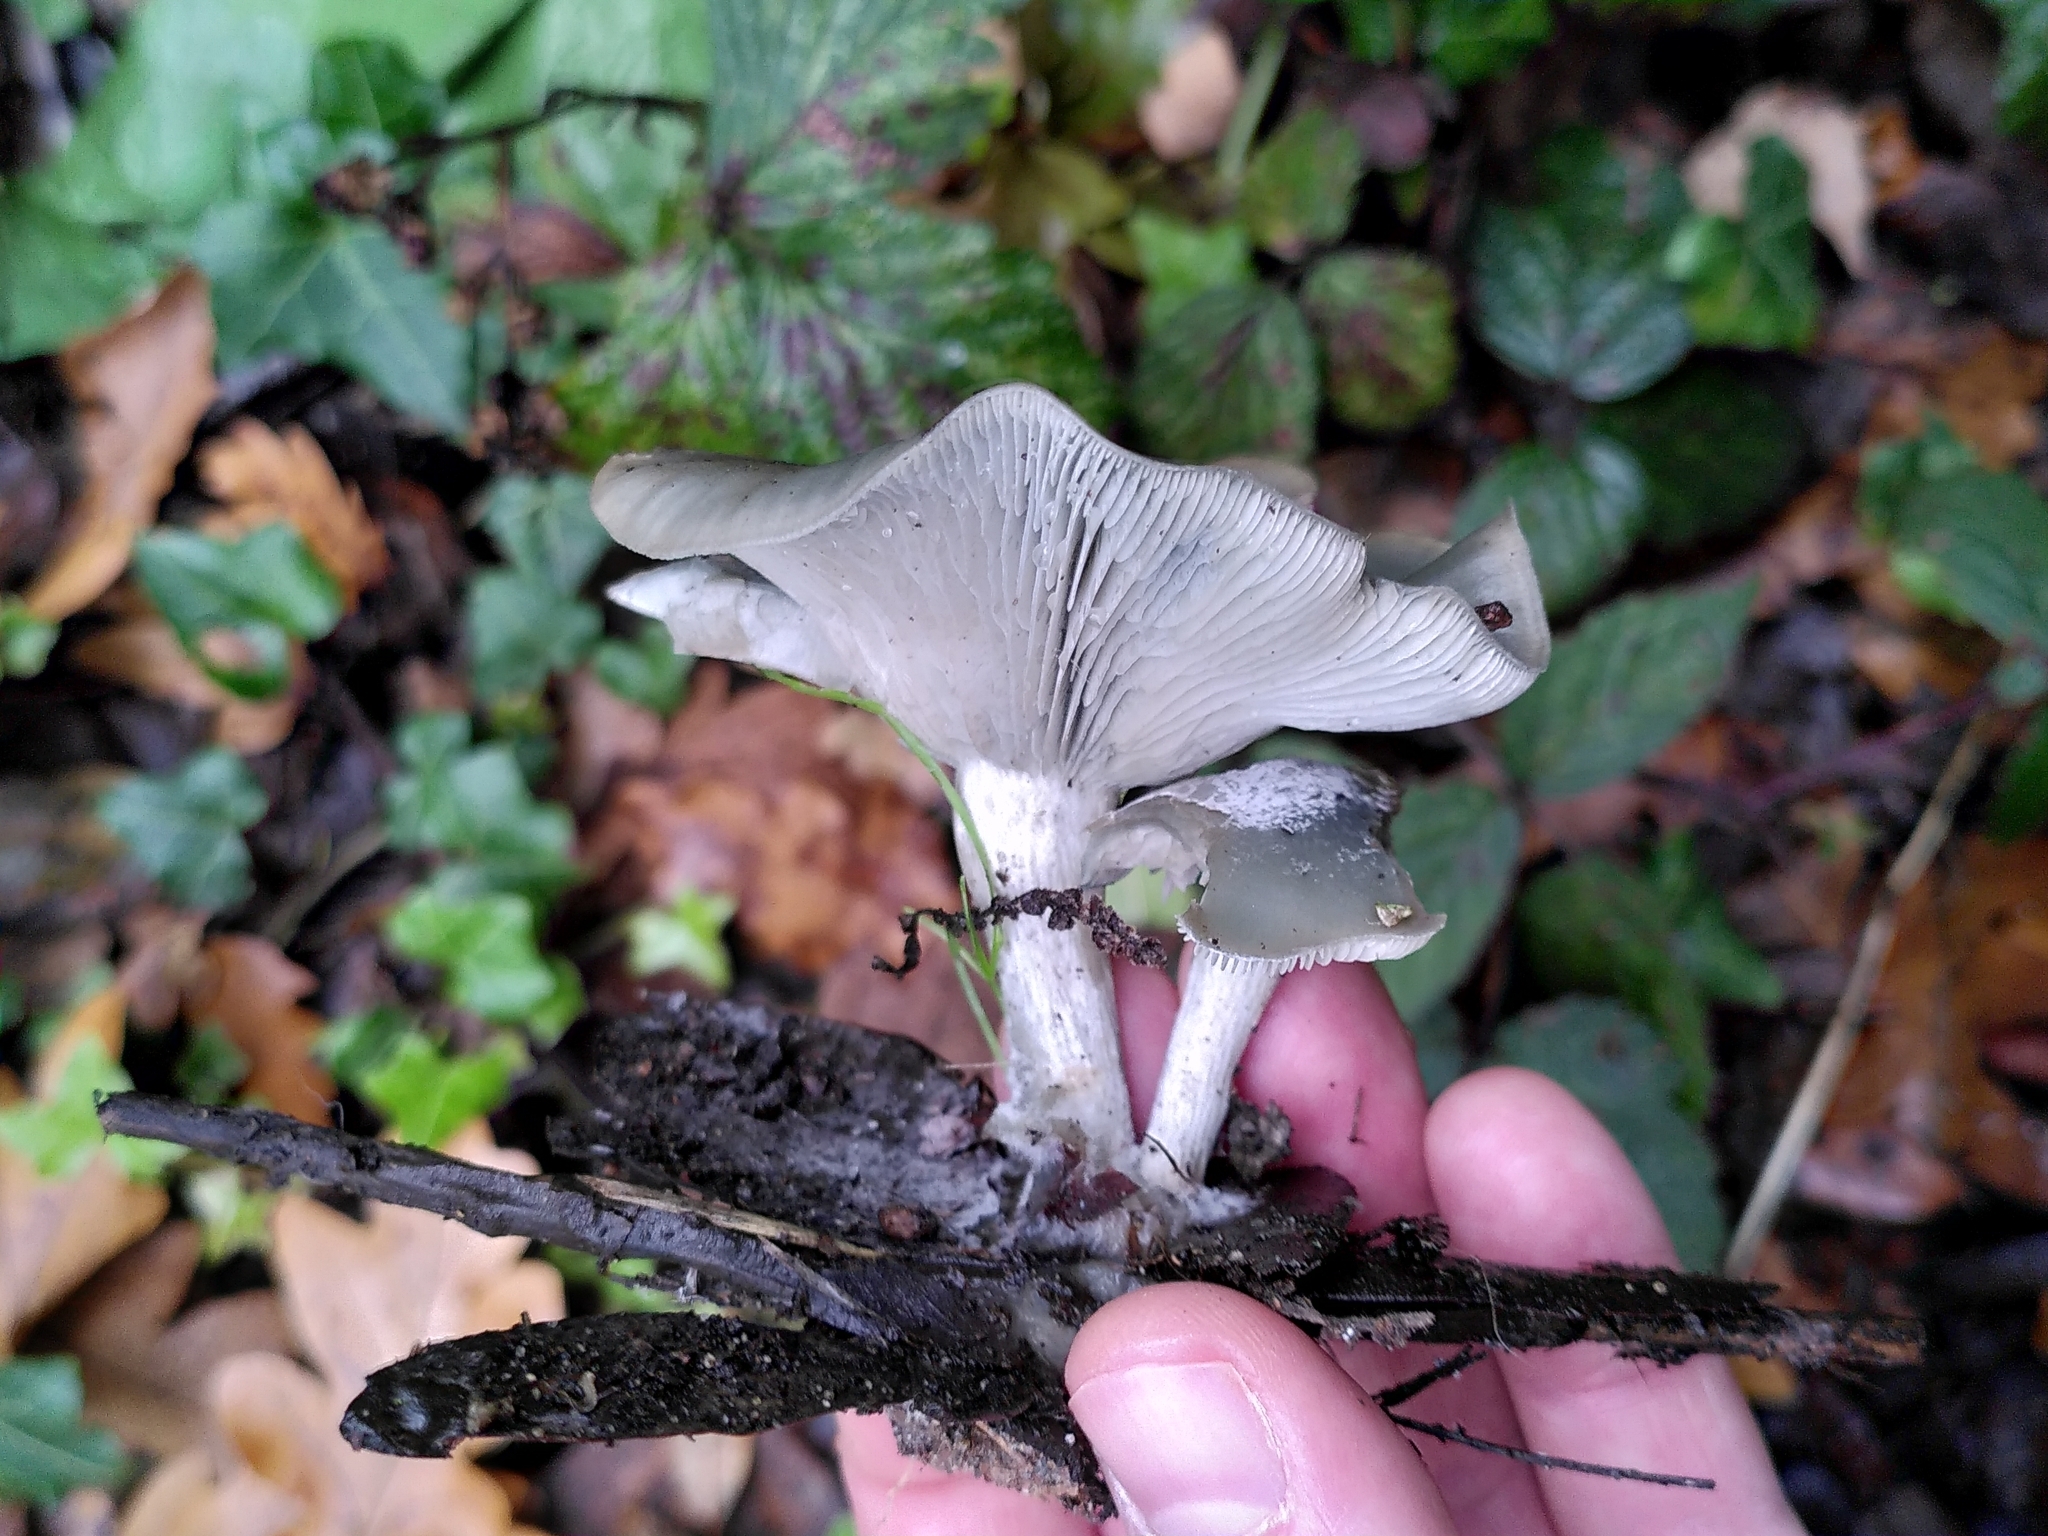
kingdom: Fungi
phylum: Basidiomycota
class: Agaricomycetes
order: Agaricales
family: Tricholomataceae
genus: Collybia
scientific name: Collybia
